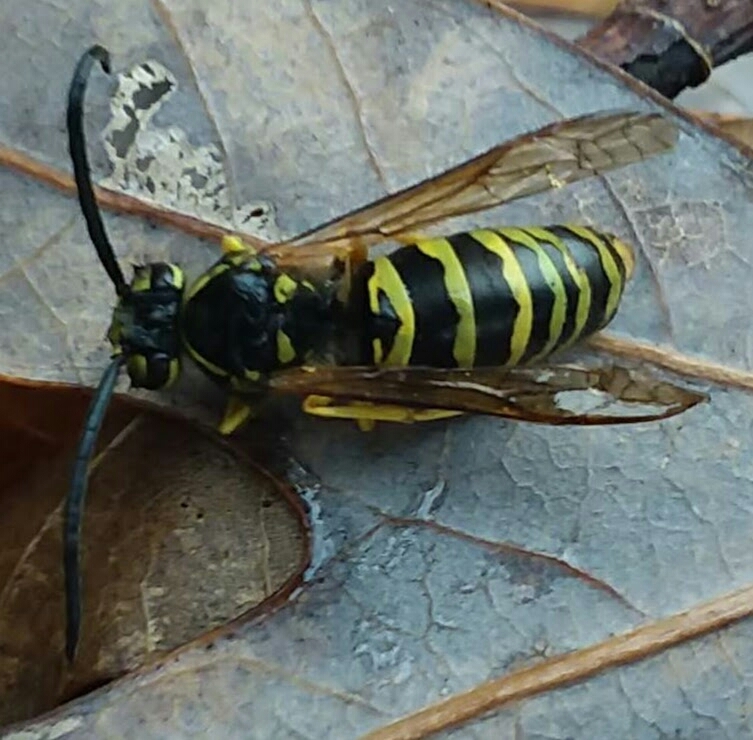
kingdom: Animalia
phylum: Arthropoda
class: Insecta
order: Hymenoptera
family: Vespidae
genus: Vespula
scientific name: Vespula maculifrons
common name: Eastern yellowjacket
